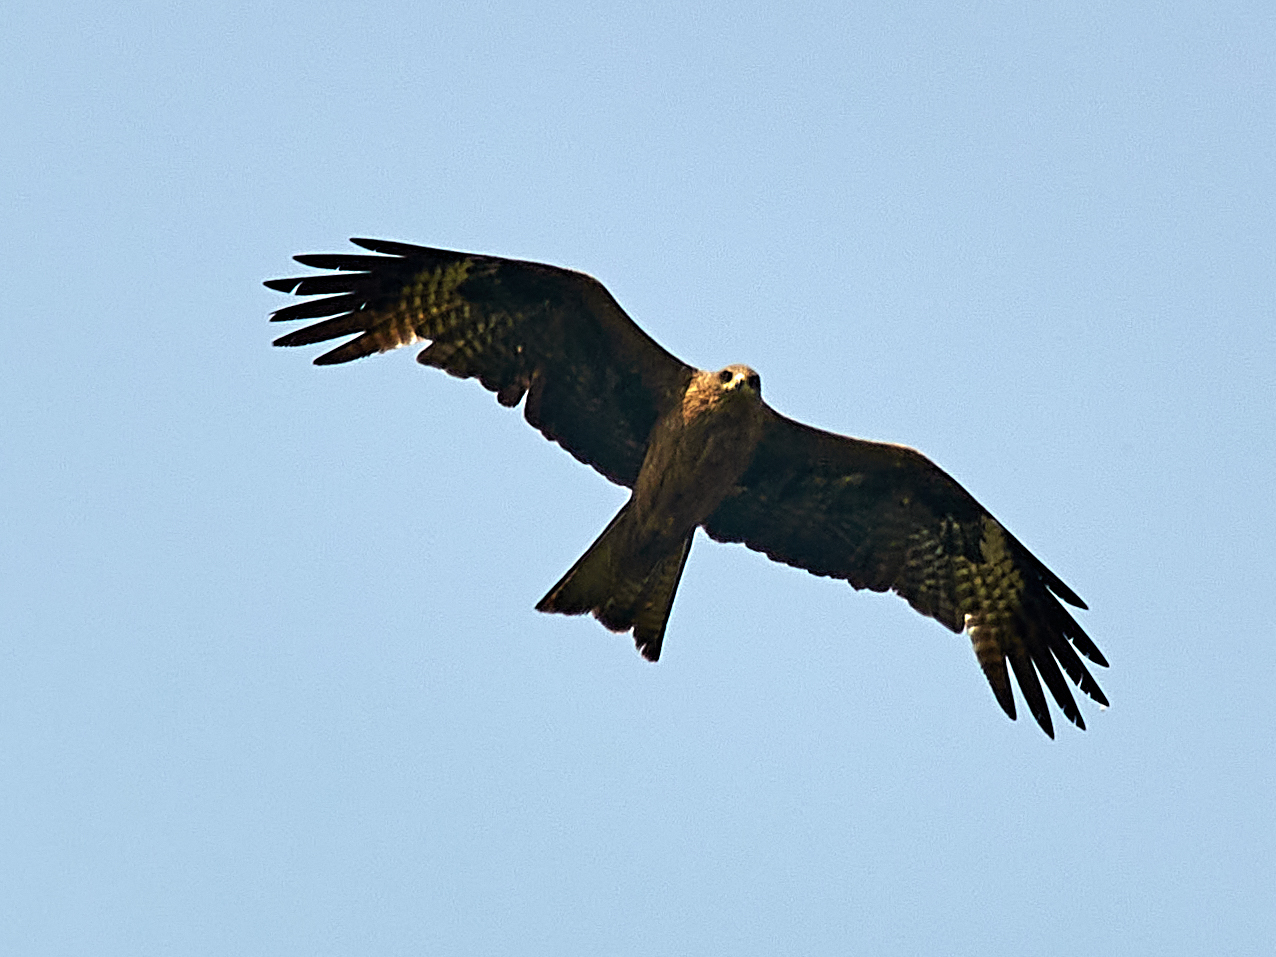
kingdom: Animalia
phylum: Chordata
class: Aves
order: Accipitriformes
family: Accipitridae
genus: Milvus
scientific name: Milvus migrans
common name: Black kite
